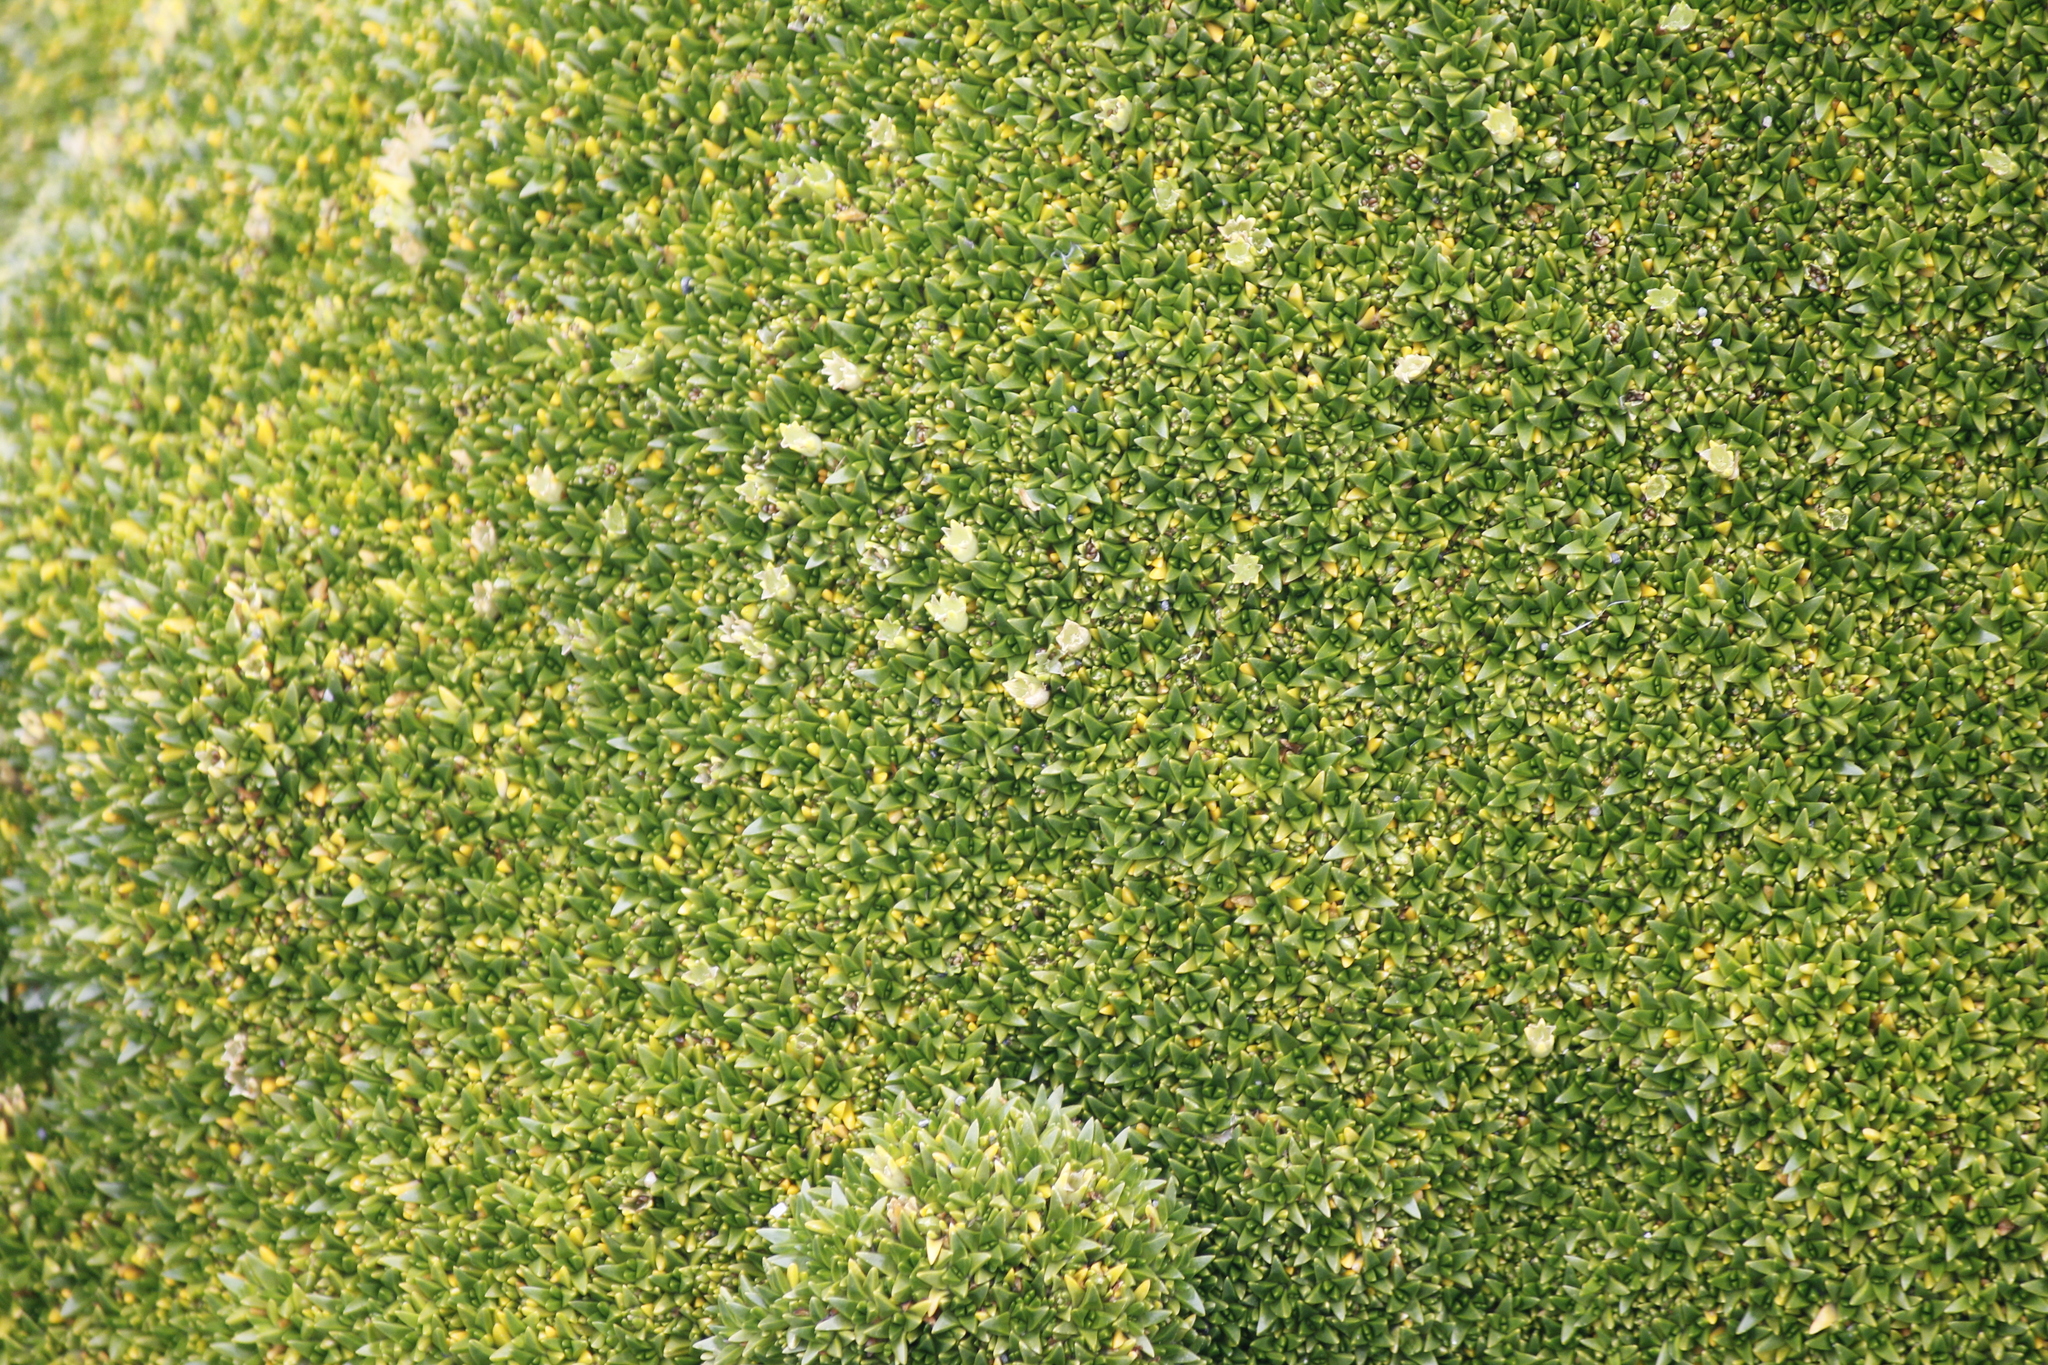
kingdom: Plantae
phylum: Tracheophyta
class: Magnoliopsida
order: Caryophyllales
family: Caryophyllaceae
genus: Colobanthus
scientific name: Colobanthus muscoides
